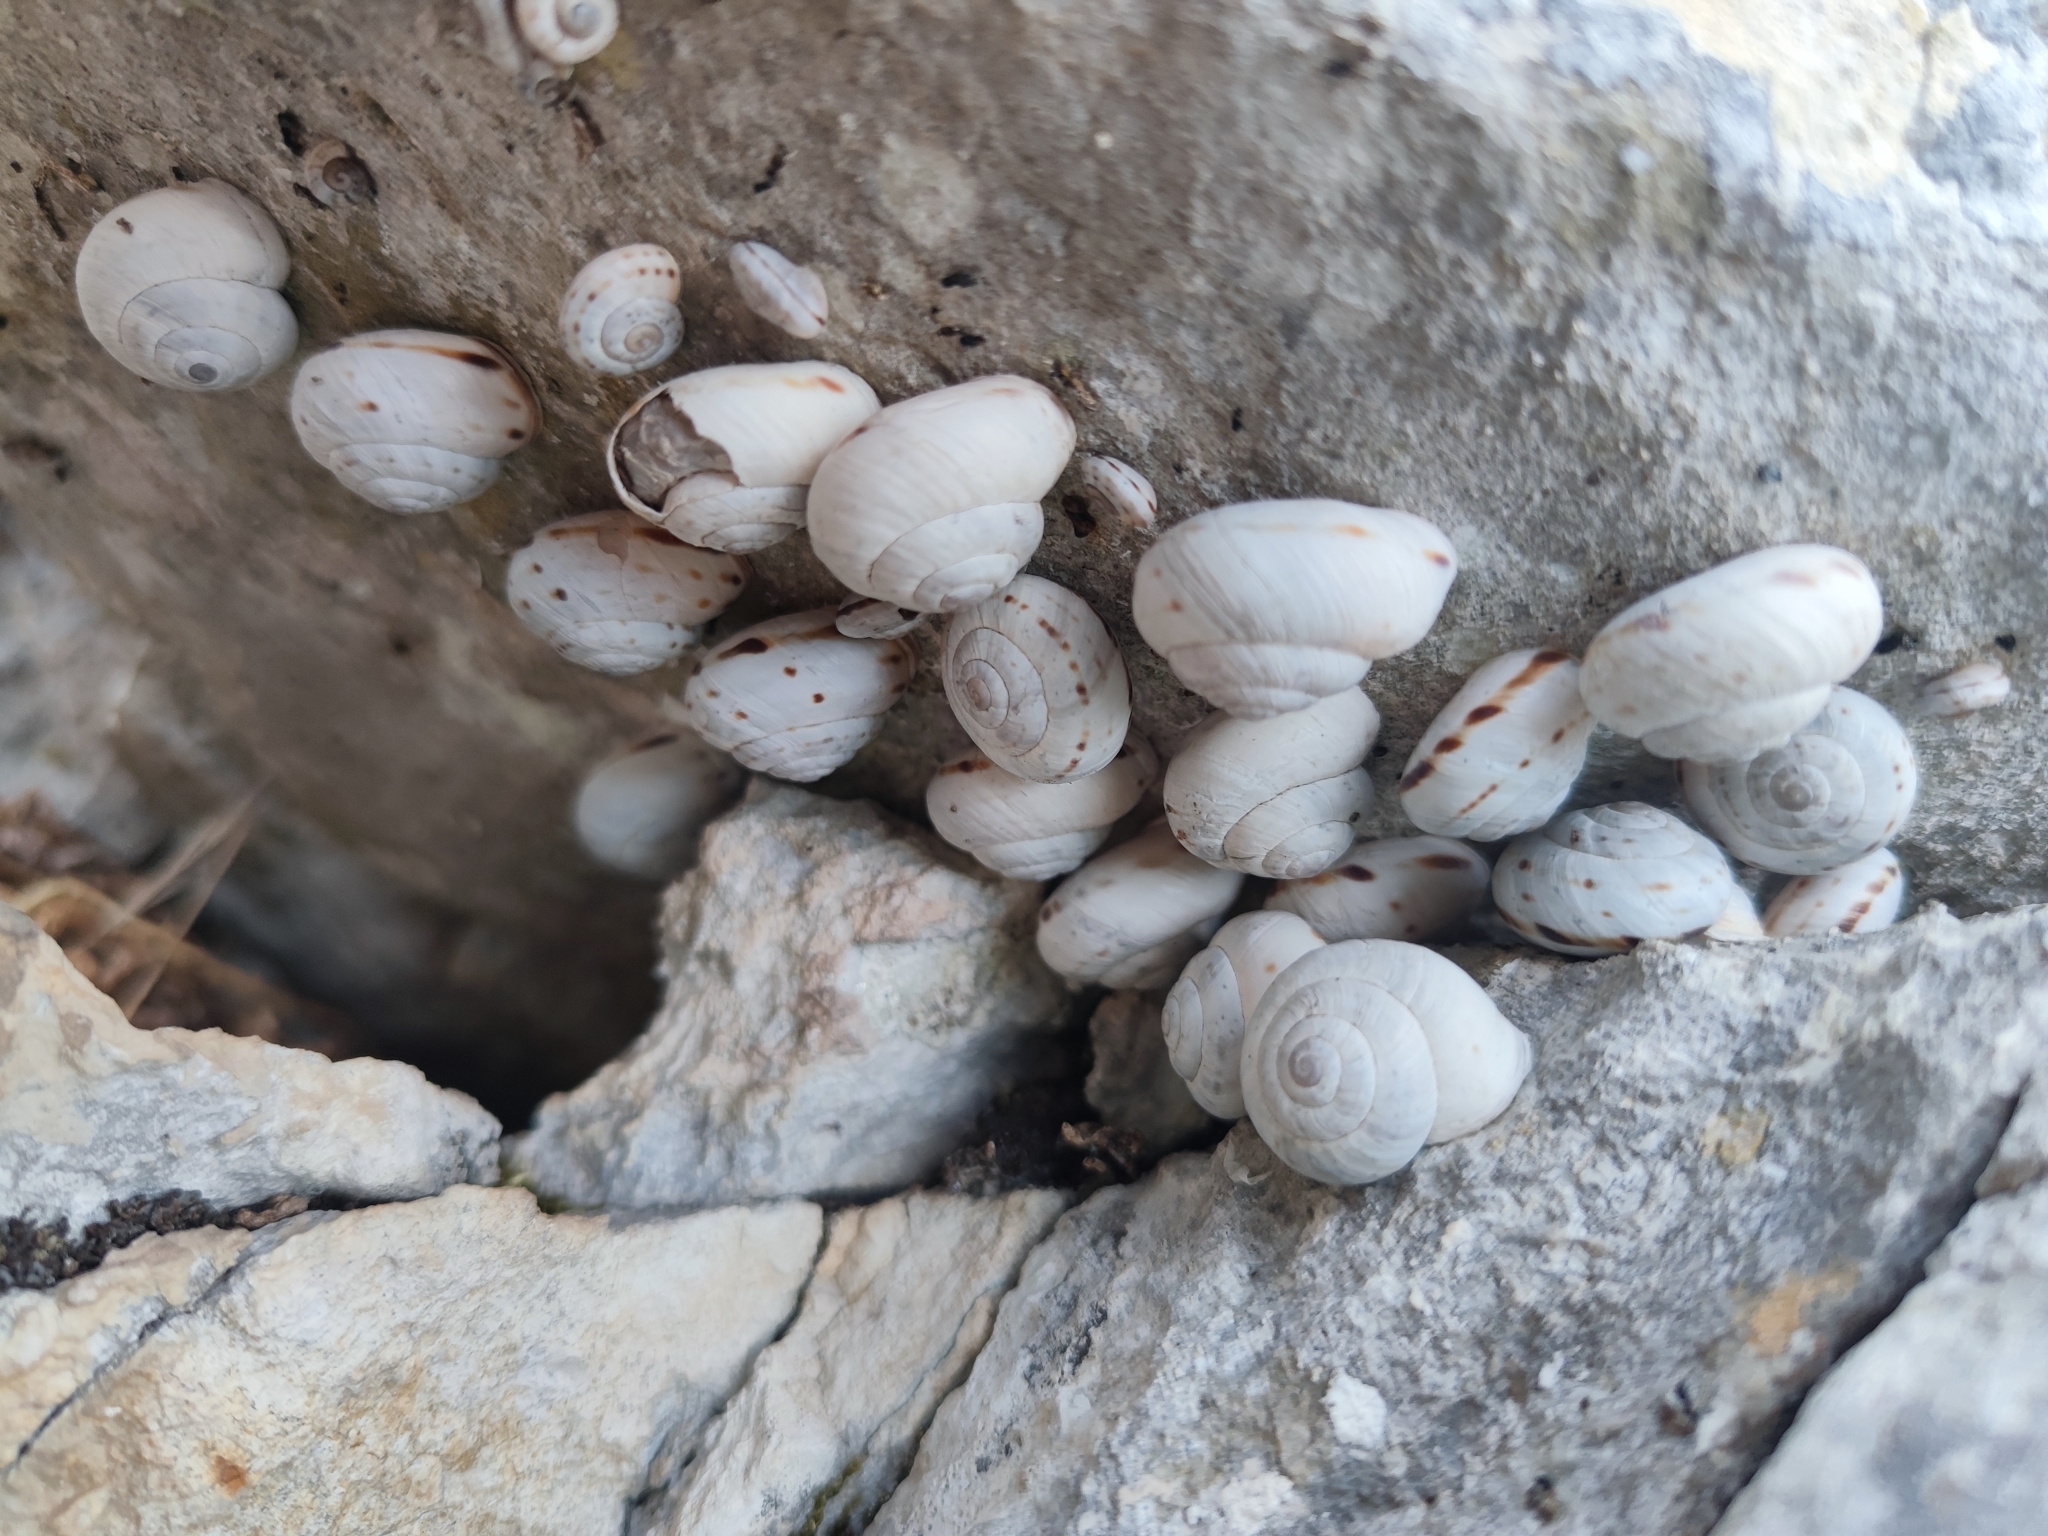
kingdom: Animalia
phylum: Mollusca
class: Gastropoda
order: Stylommatophora
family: Helicidae
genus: Marmorana
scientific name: Marmorana signata
